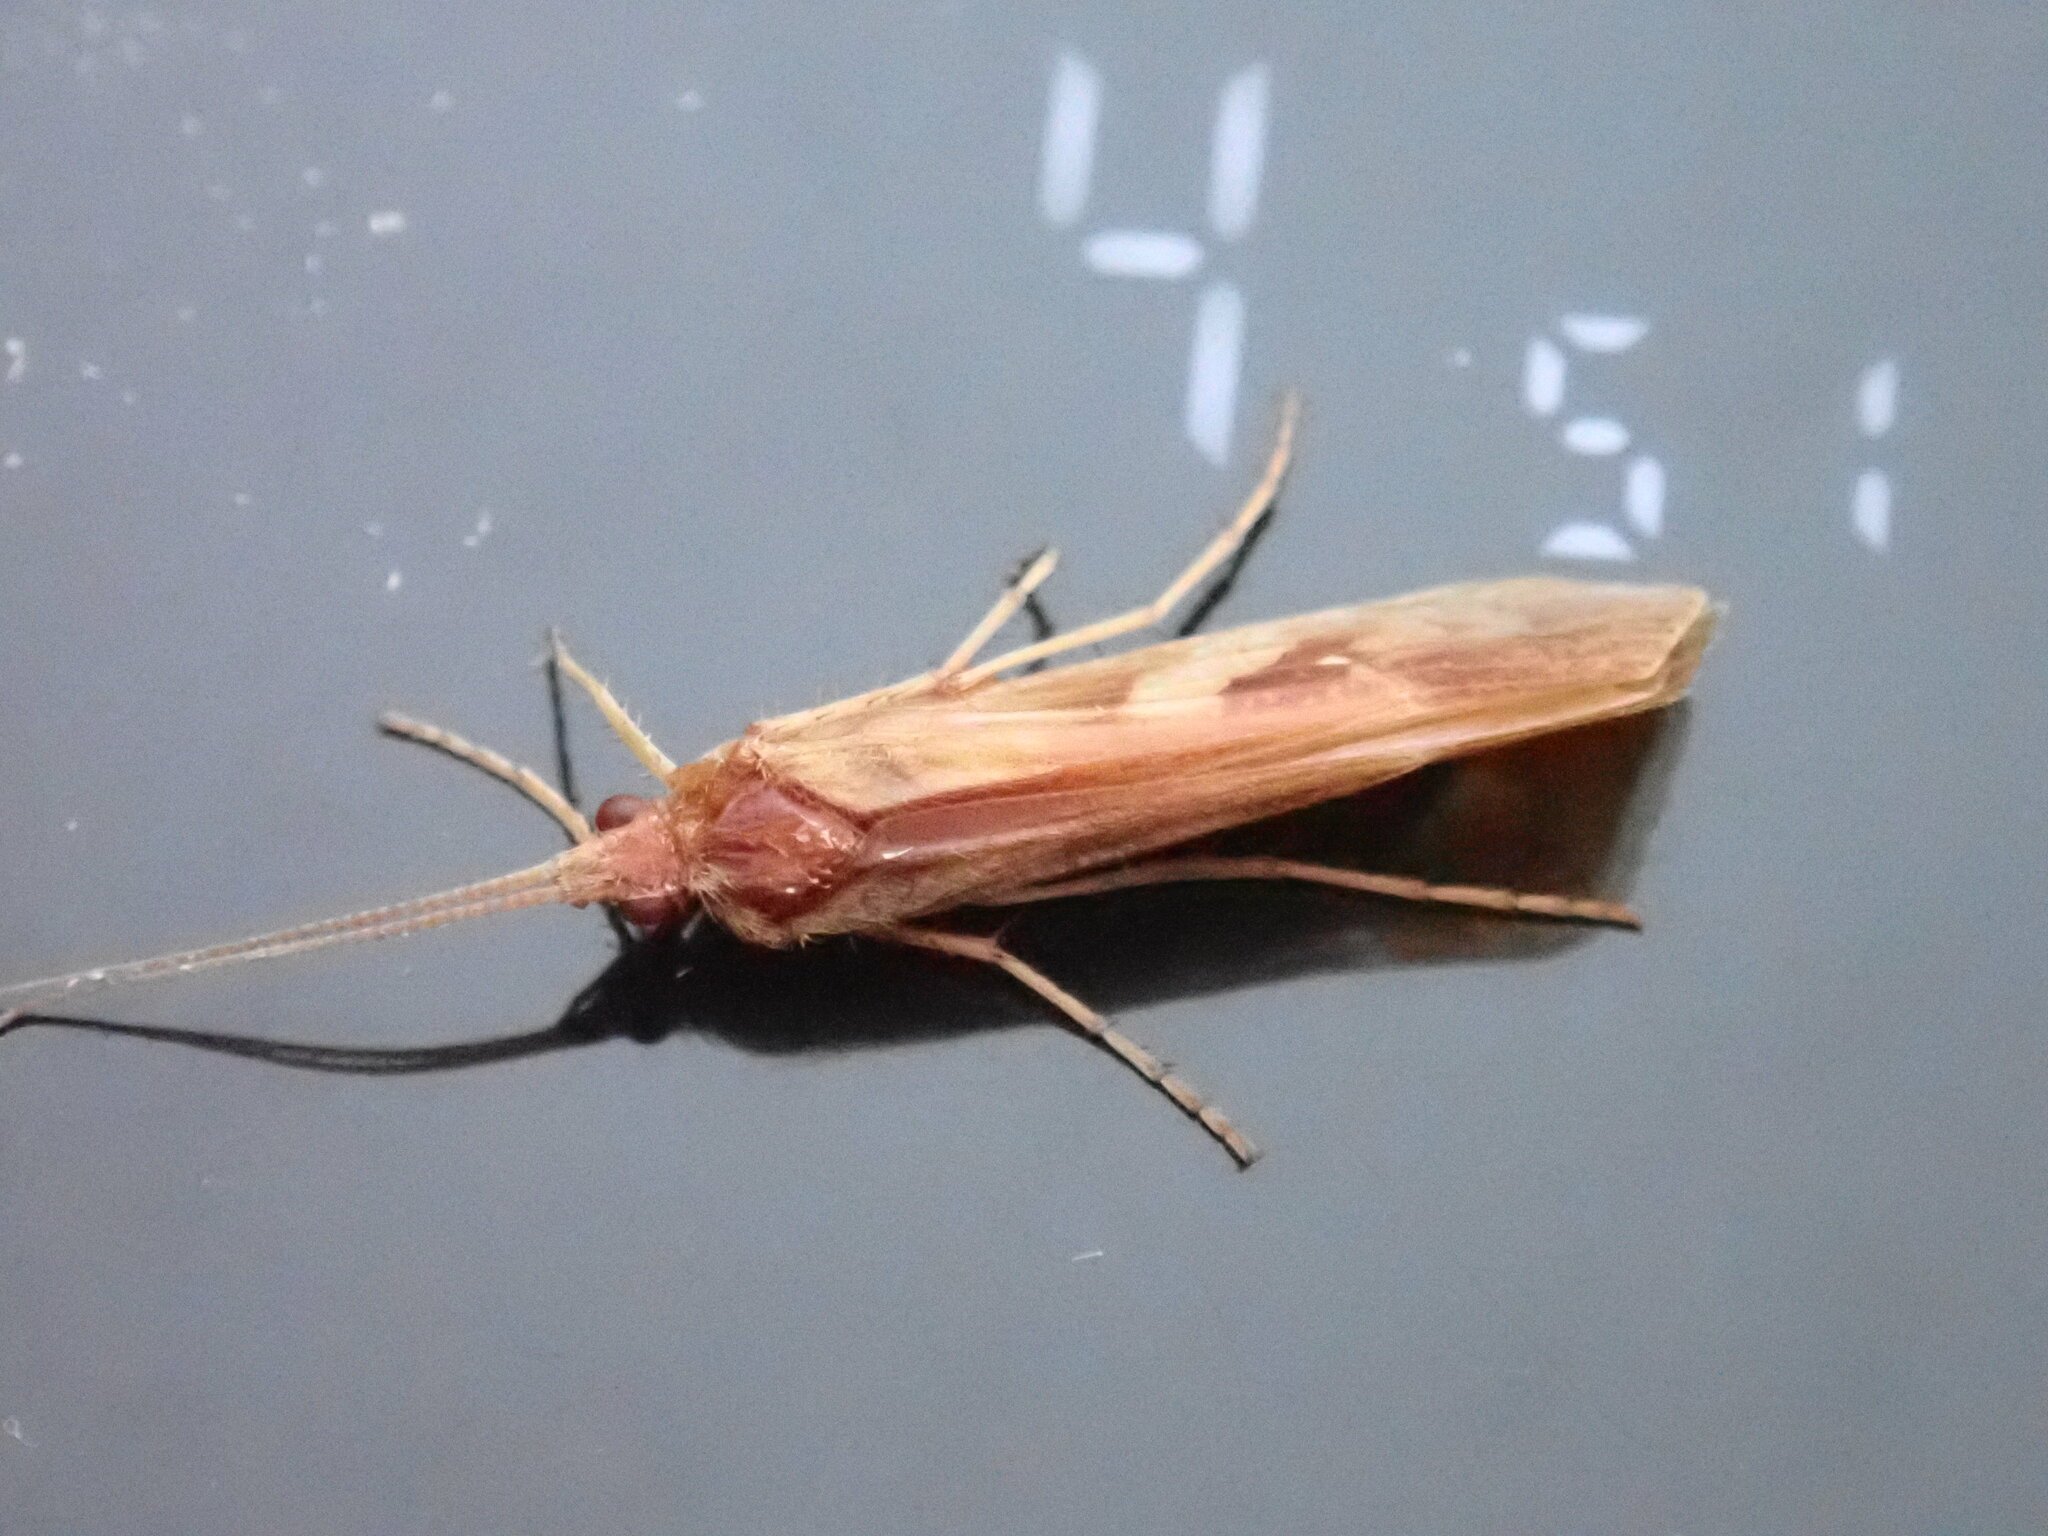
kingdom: Animalia
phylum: Arthropoda
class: Insecta
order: Trichoptera
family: Limnephilidae
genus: Limnephilus
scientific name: Limnephilus rhombicus
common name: Diamond northern caddisfly
